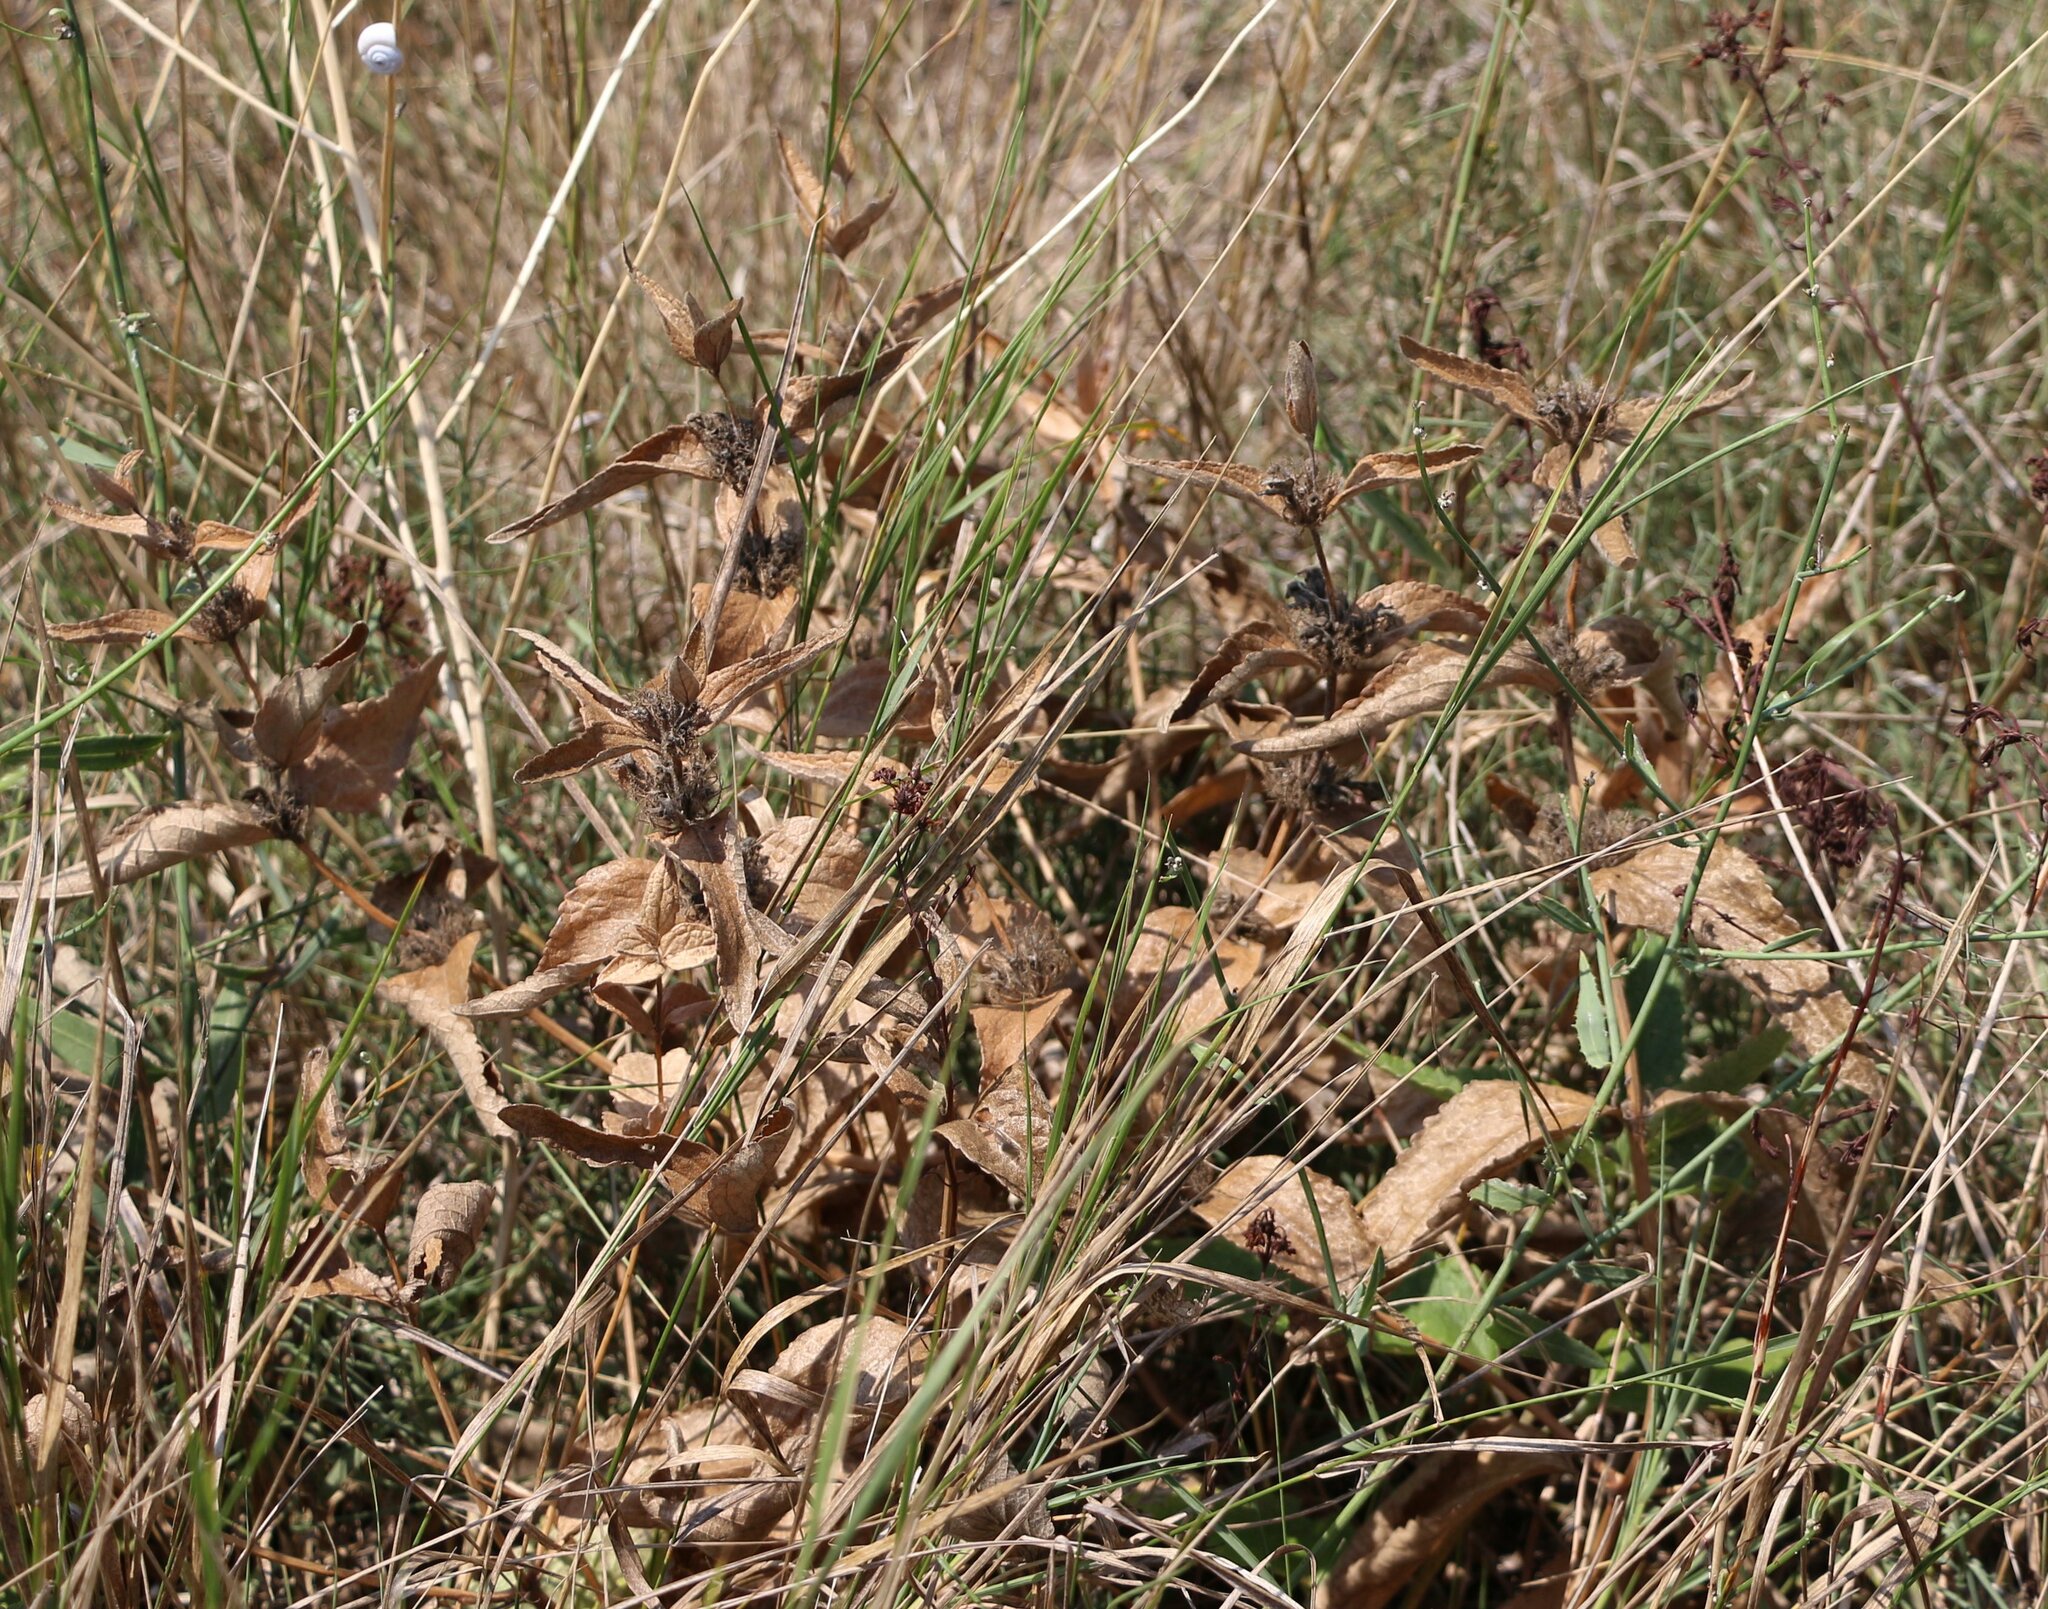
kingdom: Plantae
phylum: Tracheophyta
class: Magnoliopsida
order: Lamiales
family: Lamiaceae
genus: Phlomis
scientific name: Phlomis herba-venti
